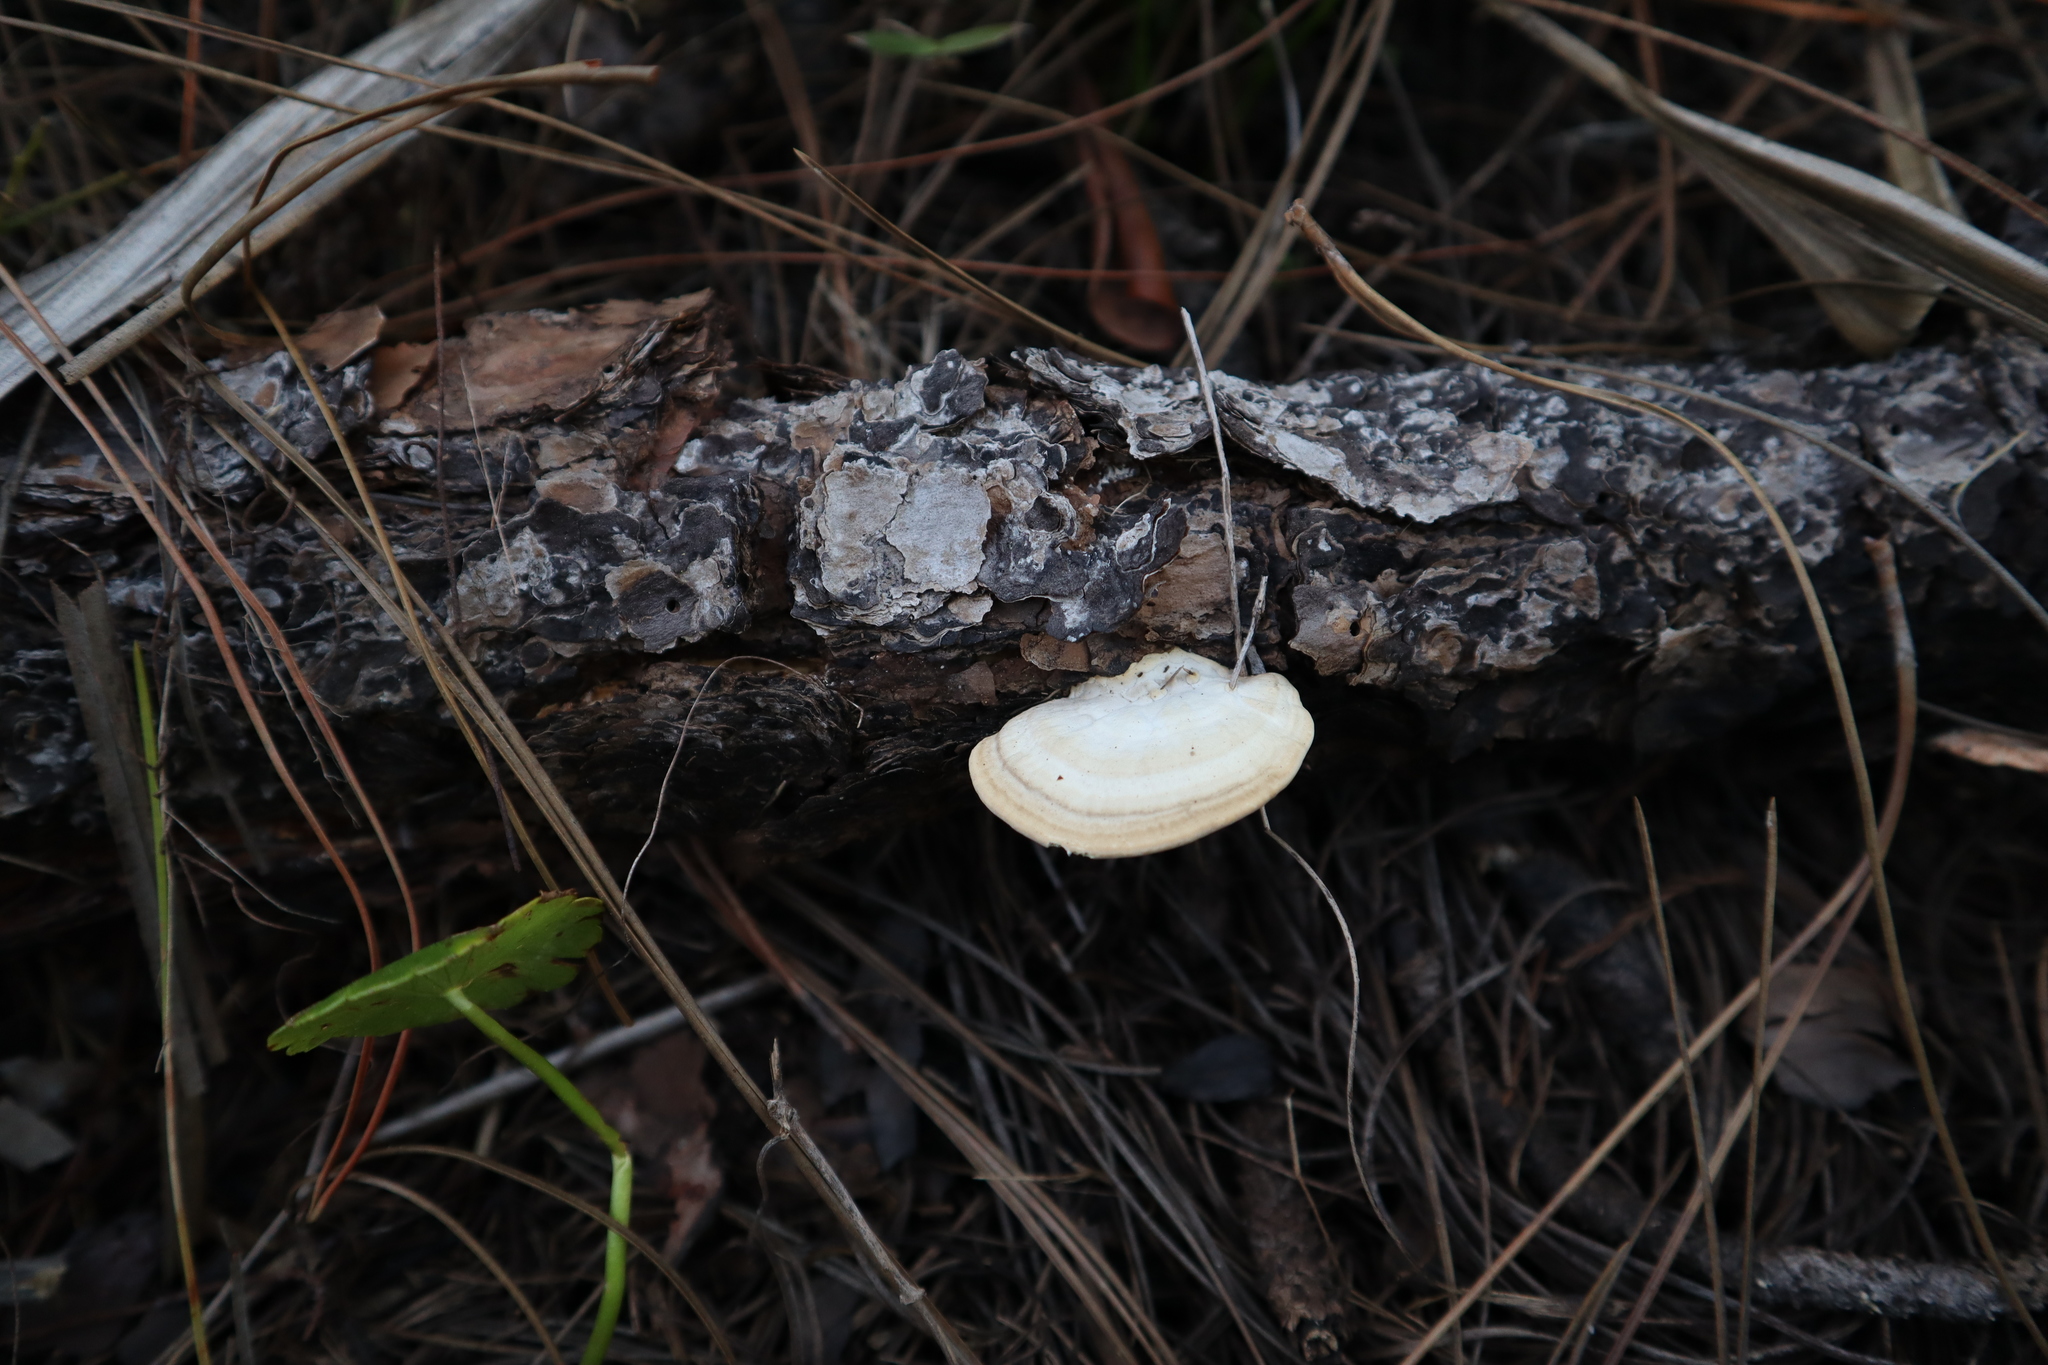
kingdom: Fungi
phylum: Basidiomycota
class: Agaricomycetes
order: Polyporales
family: Polyporaceae
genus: Trametes
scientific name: Trametes lactinea
